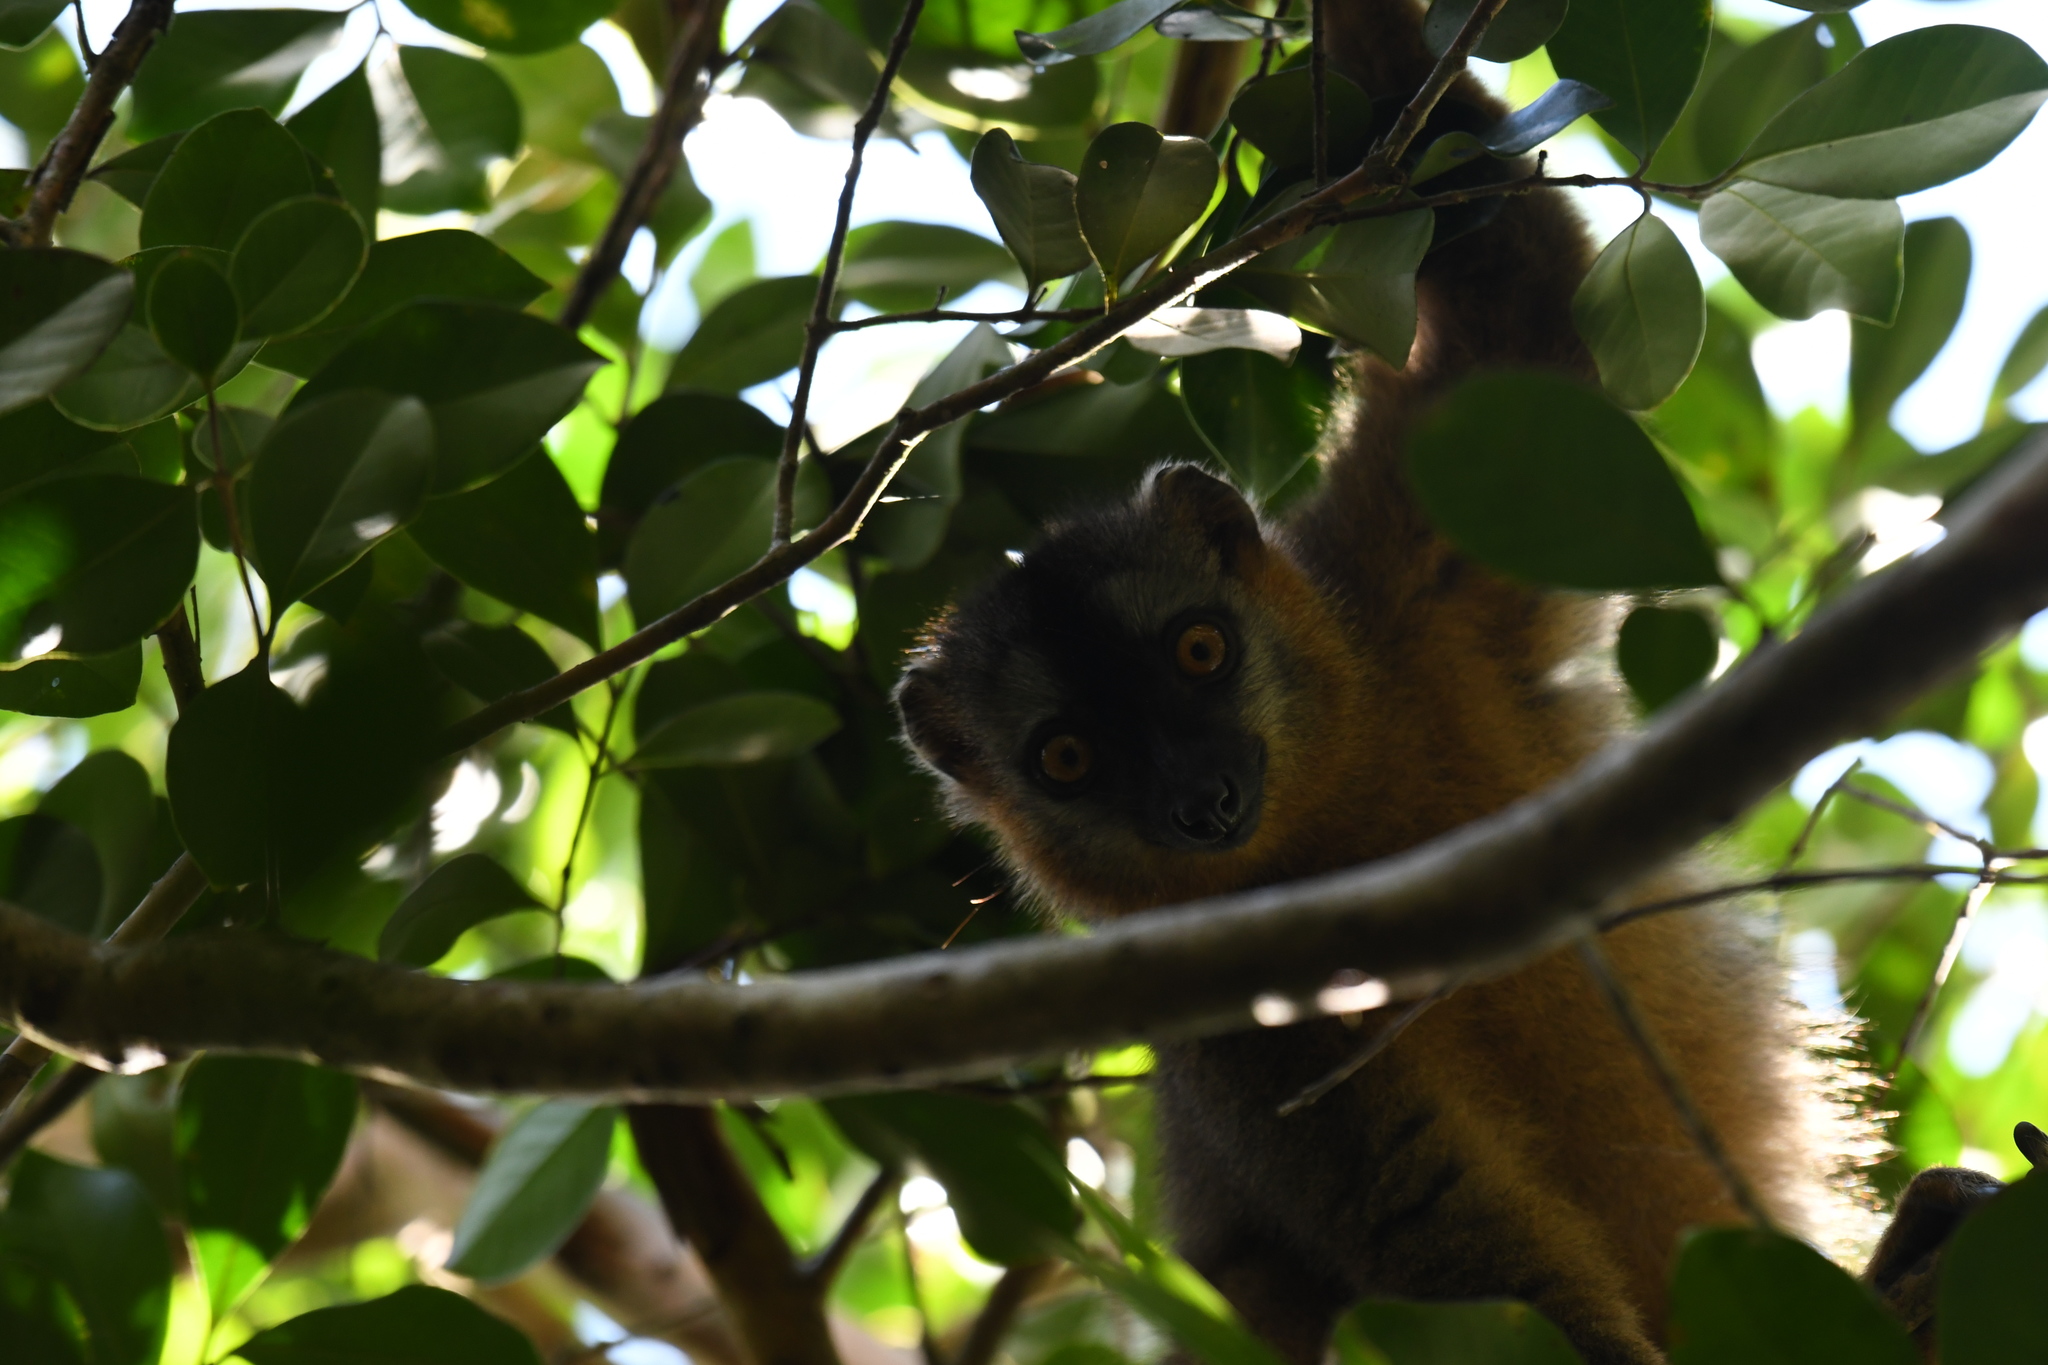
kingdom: Animalia
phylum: Chordata
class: Mammalia
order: Primates
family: Lemuridae
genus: Eulemur
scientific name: Eulemur rufifrons
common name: Red-fronted brown lemur
